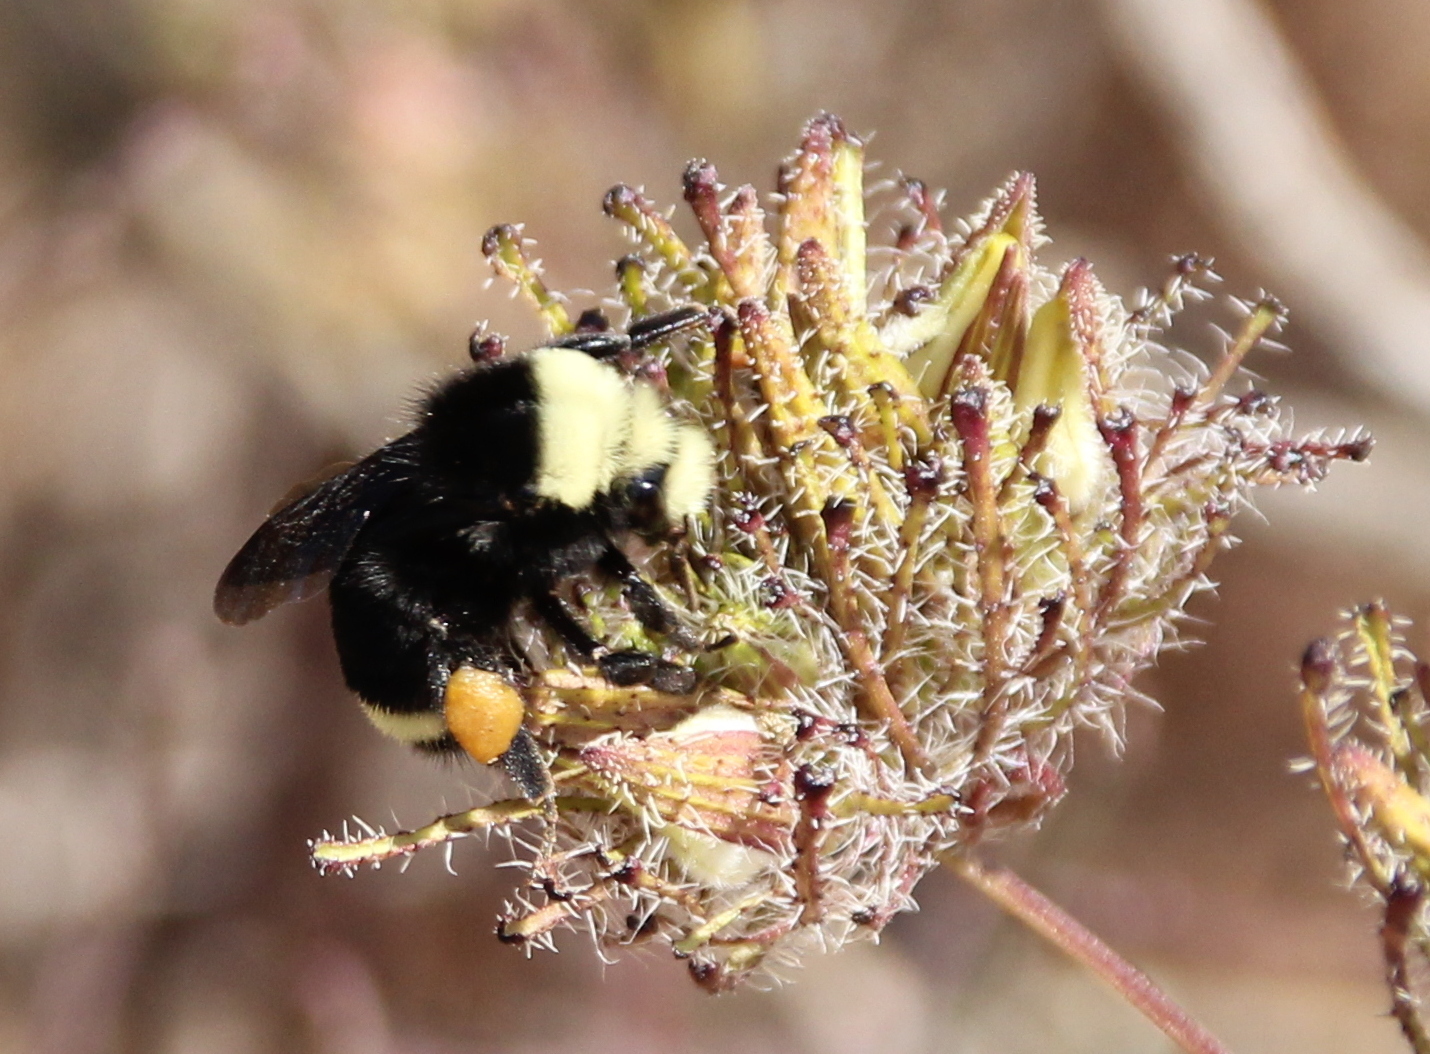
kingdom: Animalia
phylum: Arthropoda
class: Insecta
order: Hymenoptera
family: Apidae
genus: Bombus
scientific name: Bombus vosnesenskii
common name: Vosnesensky bumble bee
